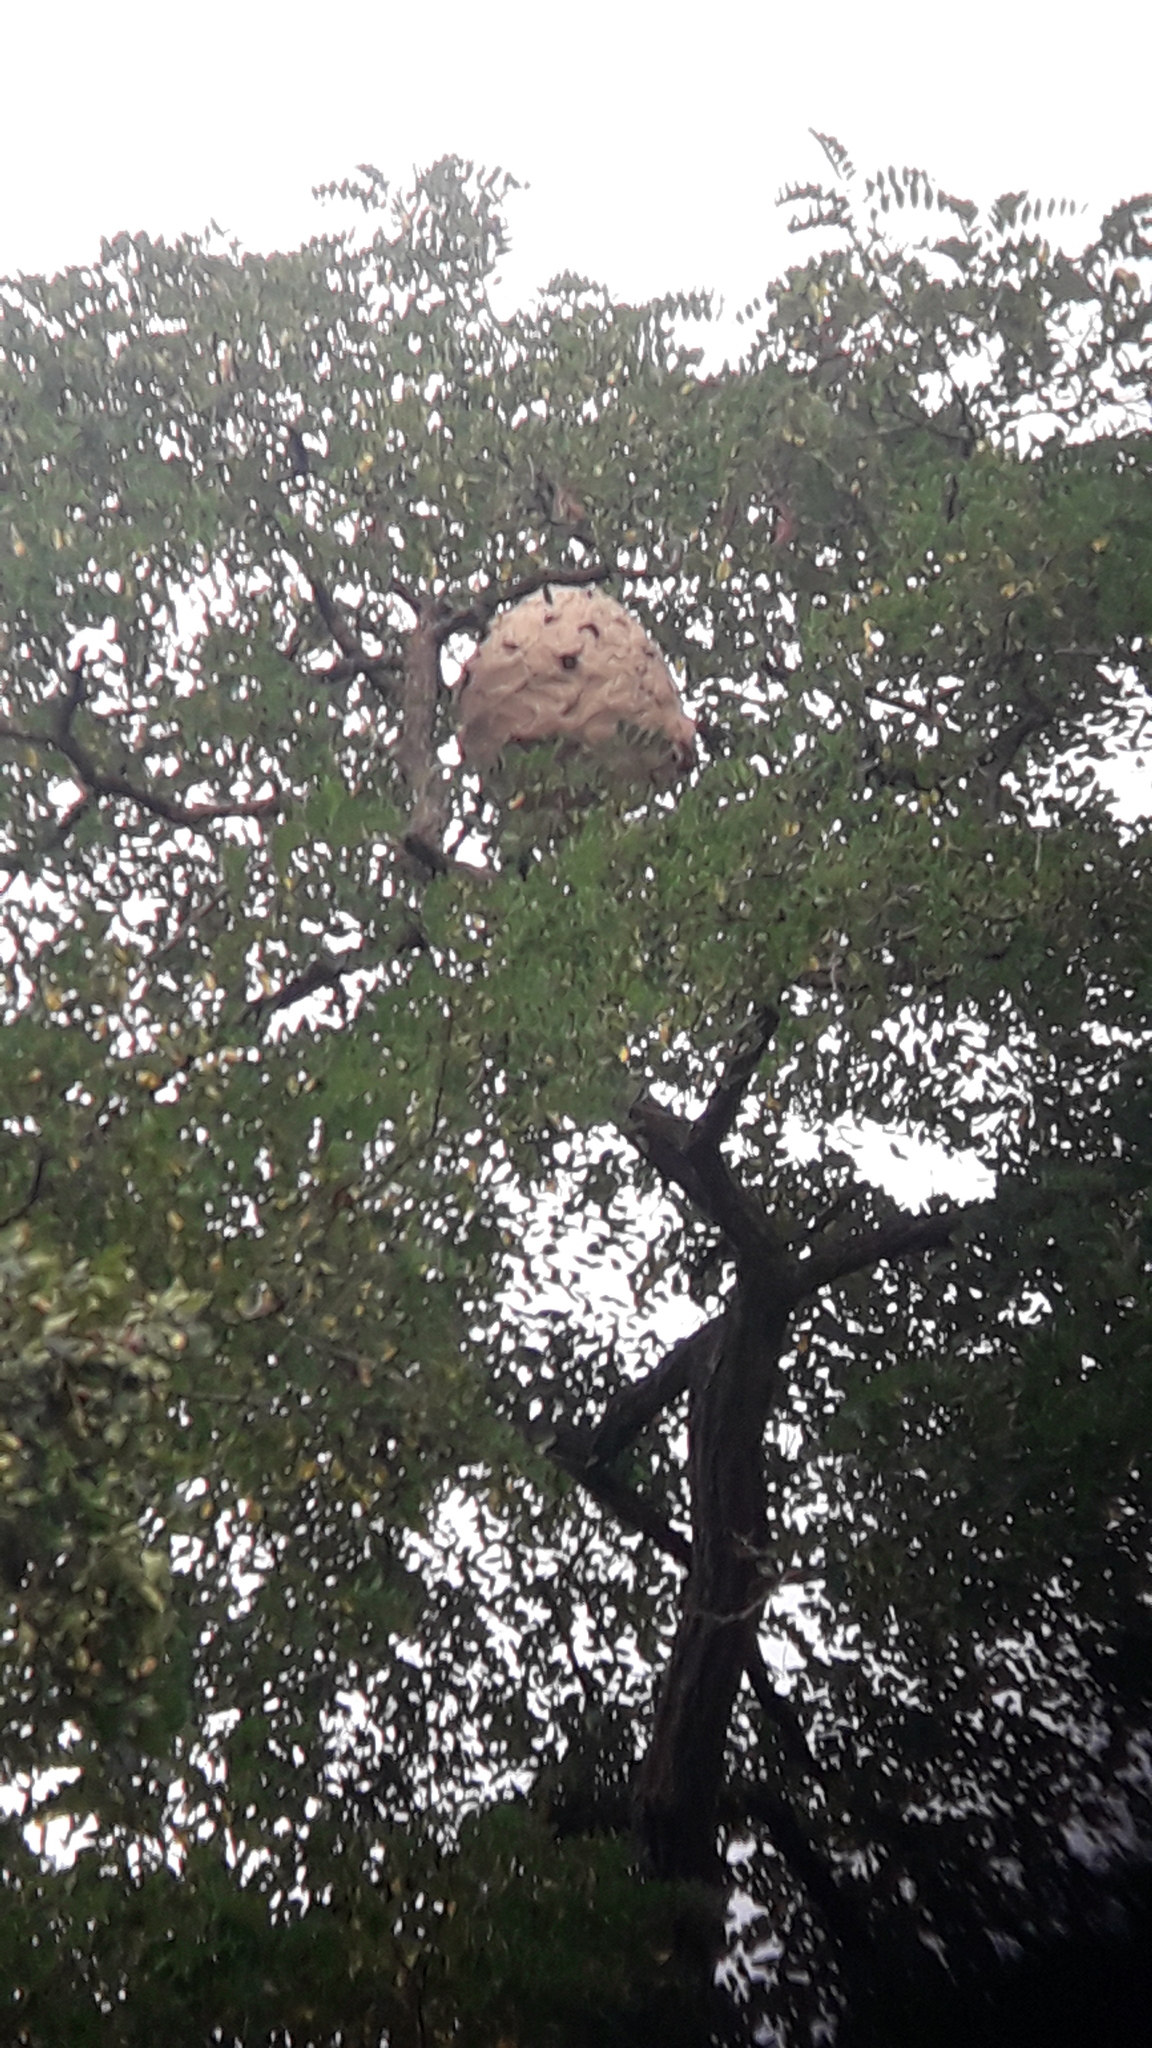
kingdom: Animalia
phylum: Arthropoda
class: Insecta
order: Hymenoptera
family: Vespidae
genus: Vespa
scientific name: Vespa velutina
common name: Asian hornet
